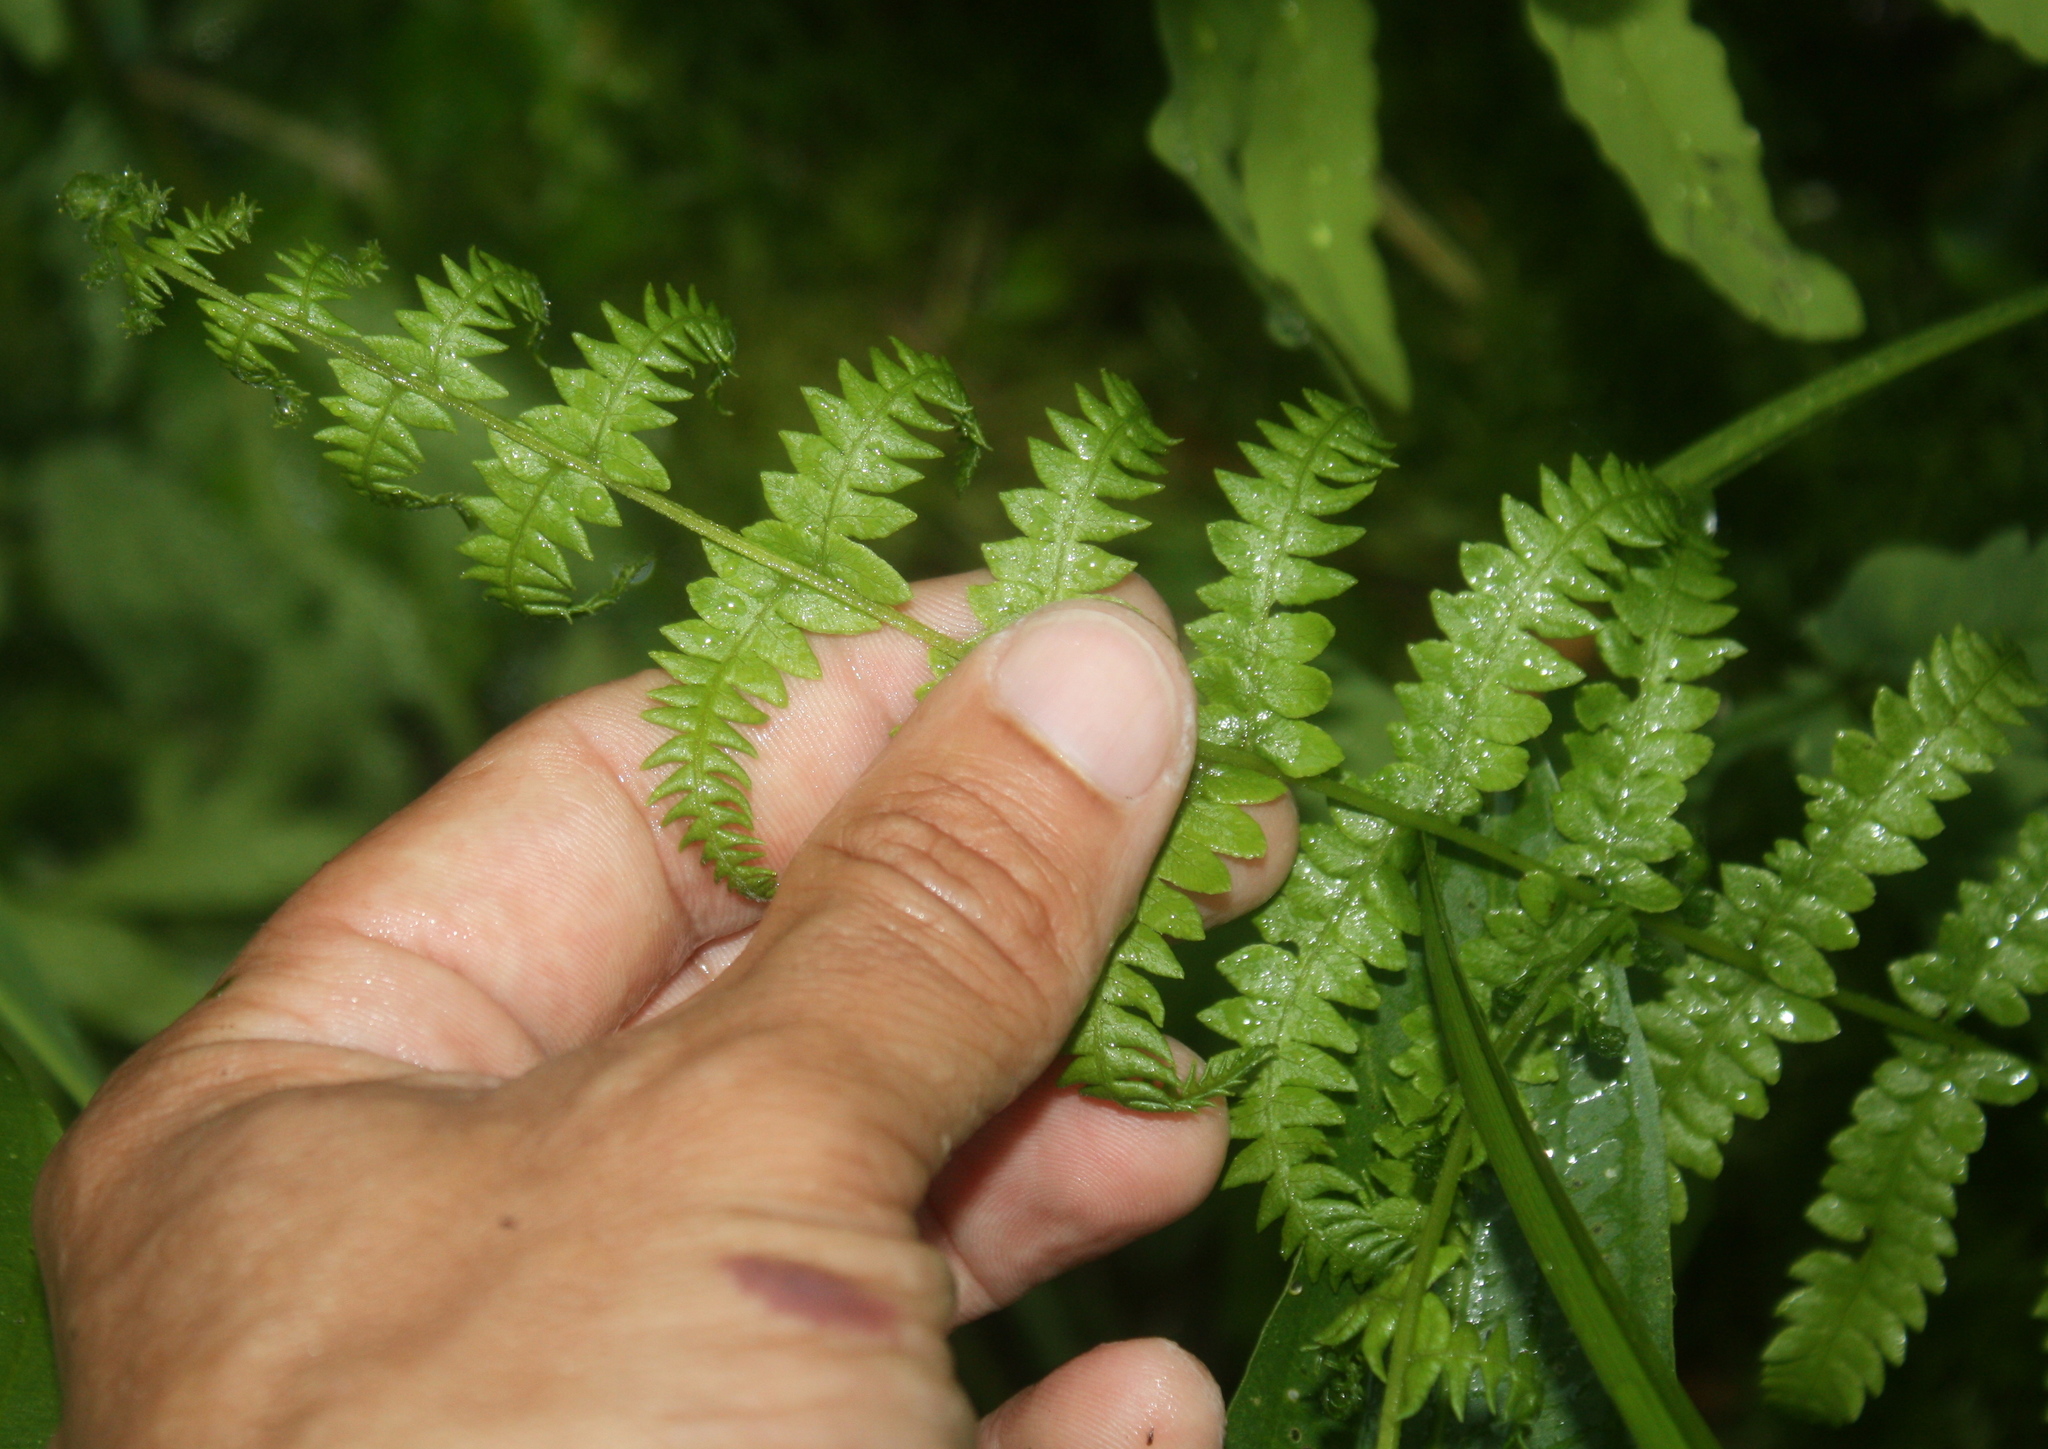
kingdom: Plantae
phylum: Tracheophyta
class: Polypodiopsida
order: Polypodiales
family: Thelypteridaceae
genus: Thelypteris
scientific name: Thelypteris palustris
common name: Marsh fern
